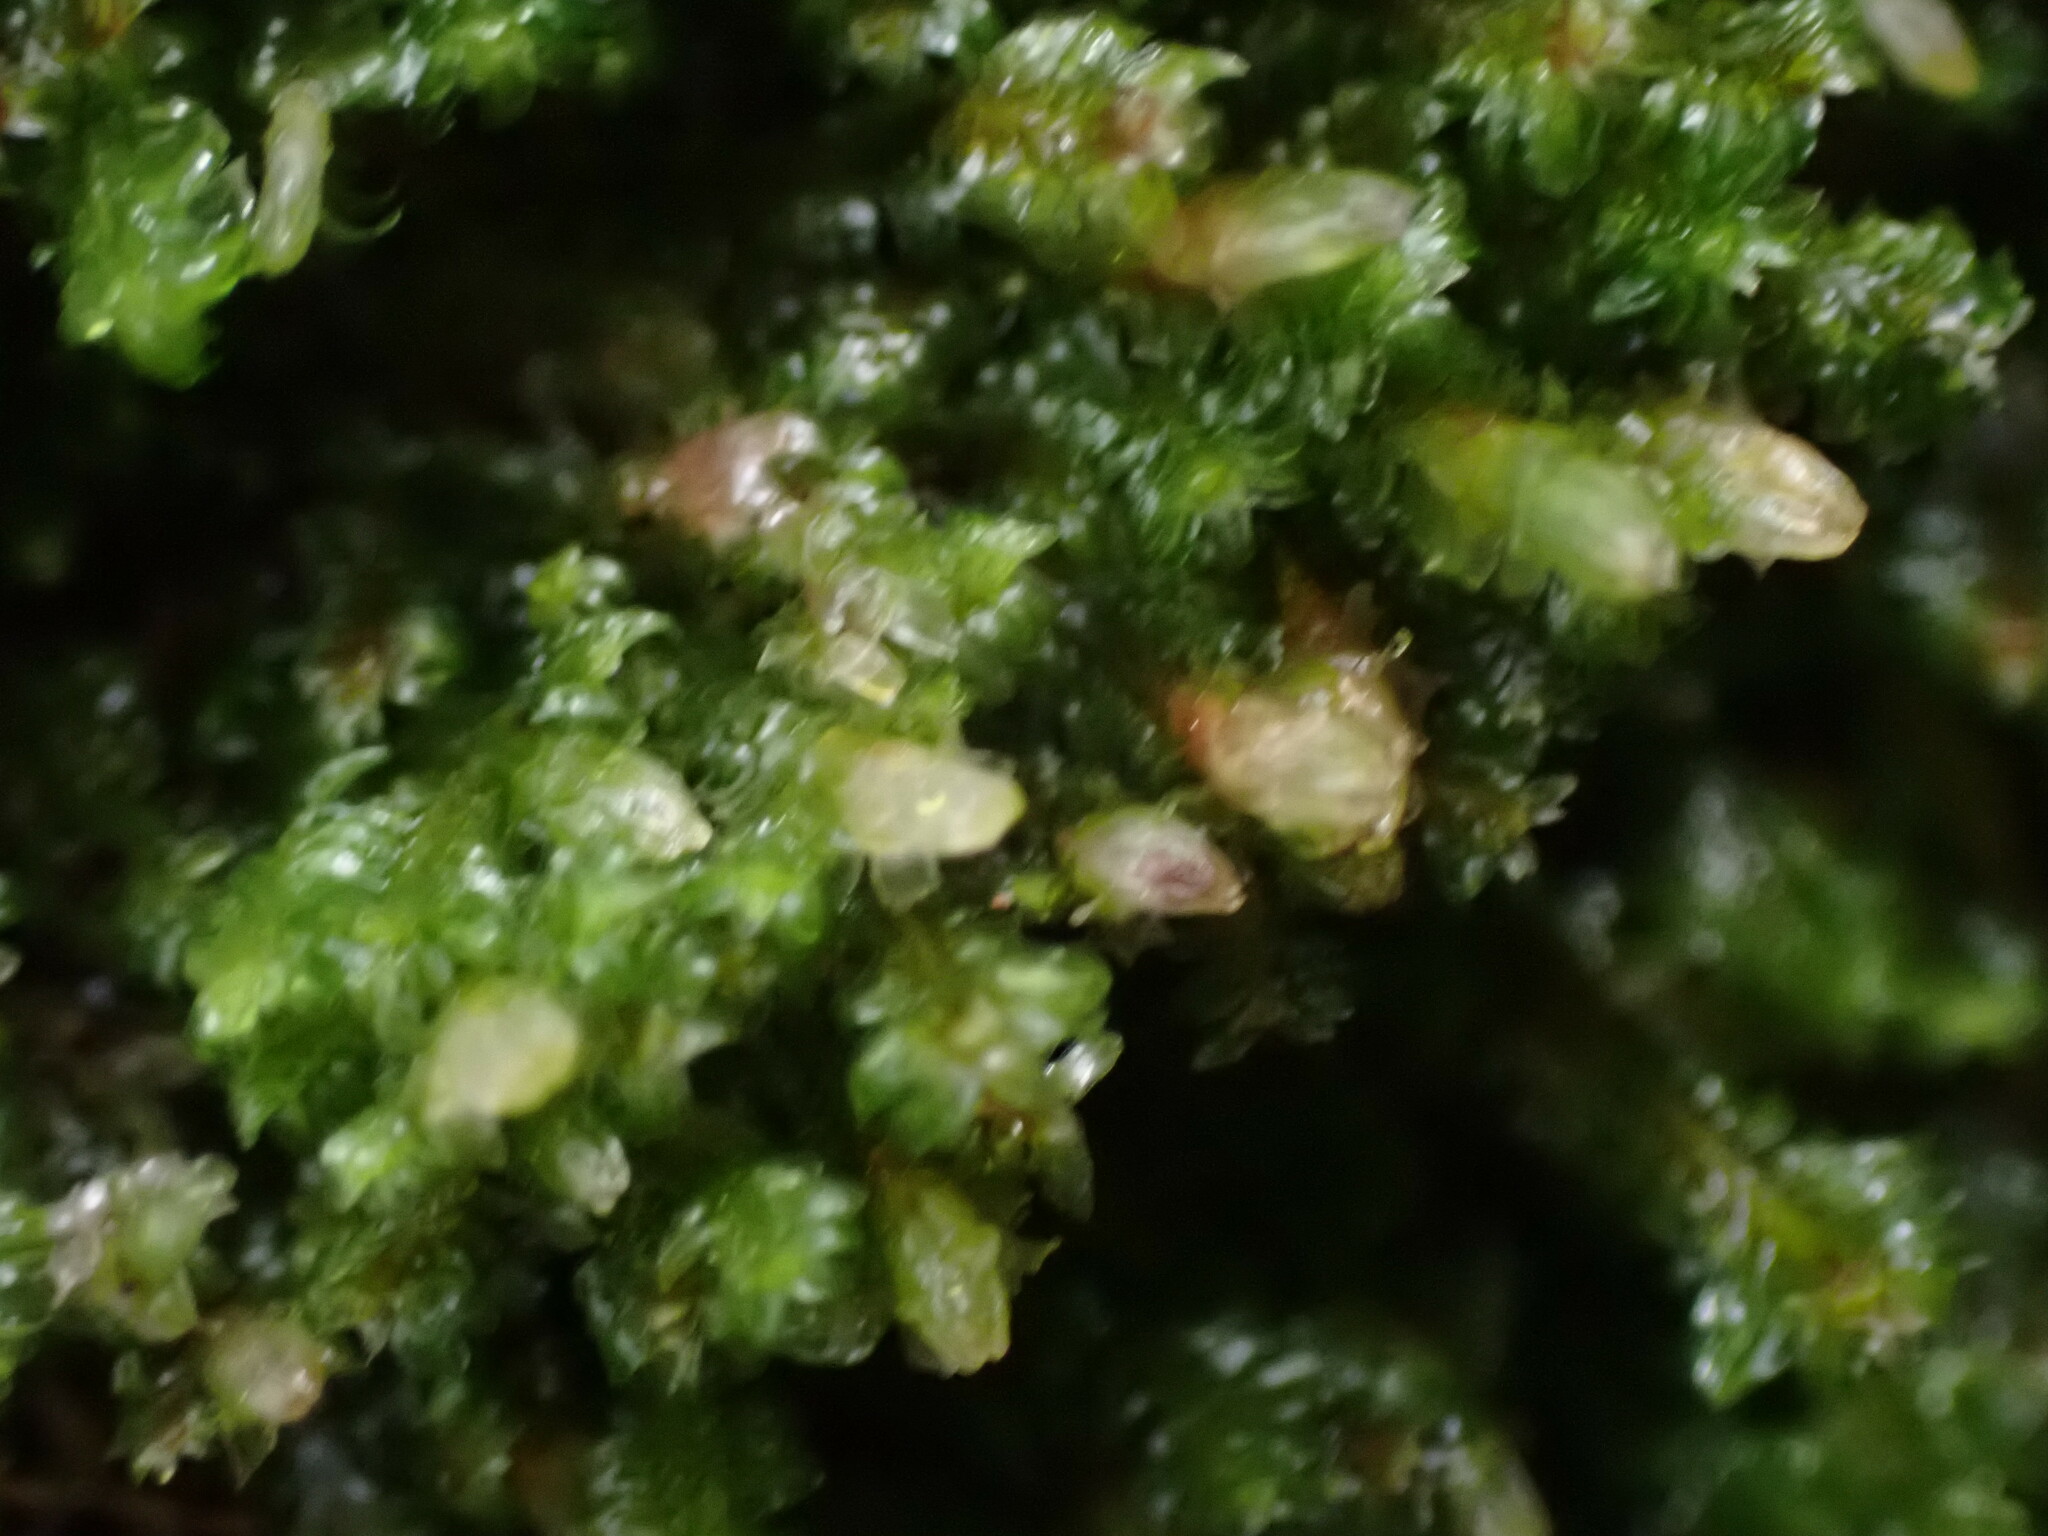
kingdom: Plantae
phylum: Marchantiophyta
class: Jungermanniopsida
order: Jungermanniales
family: Scapaniaceae
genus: Diplophyllum
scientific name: Diplophyllum albicans
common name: White earwort
